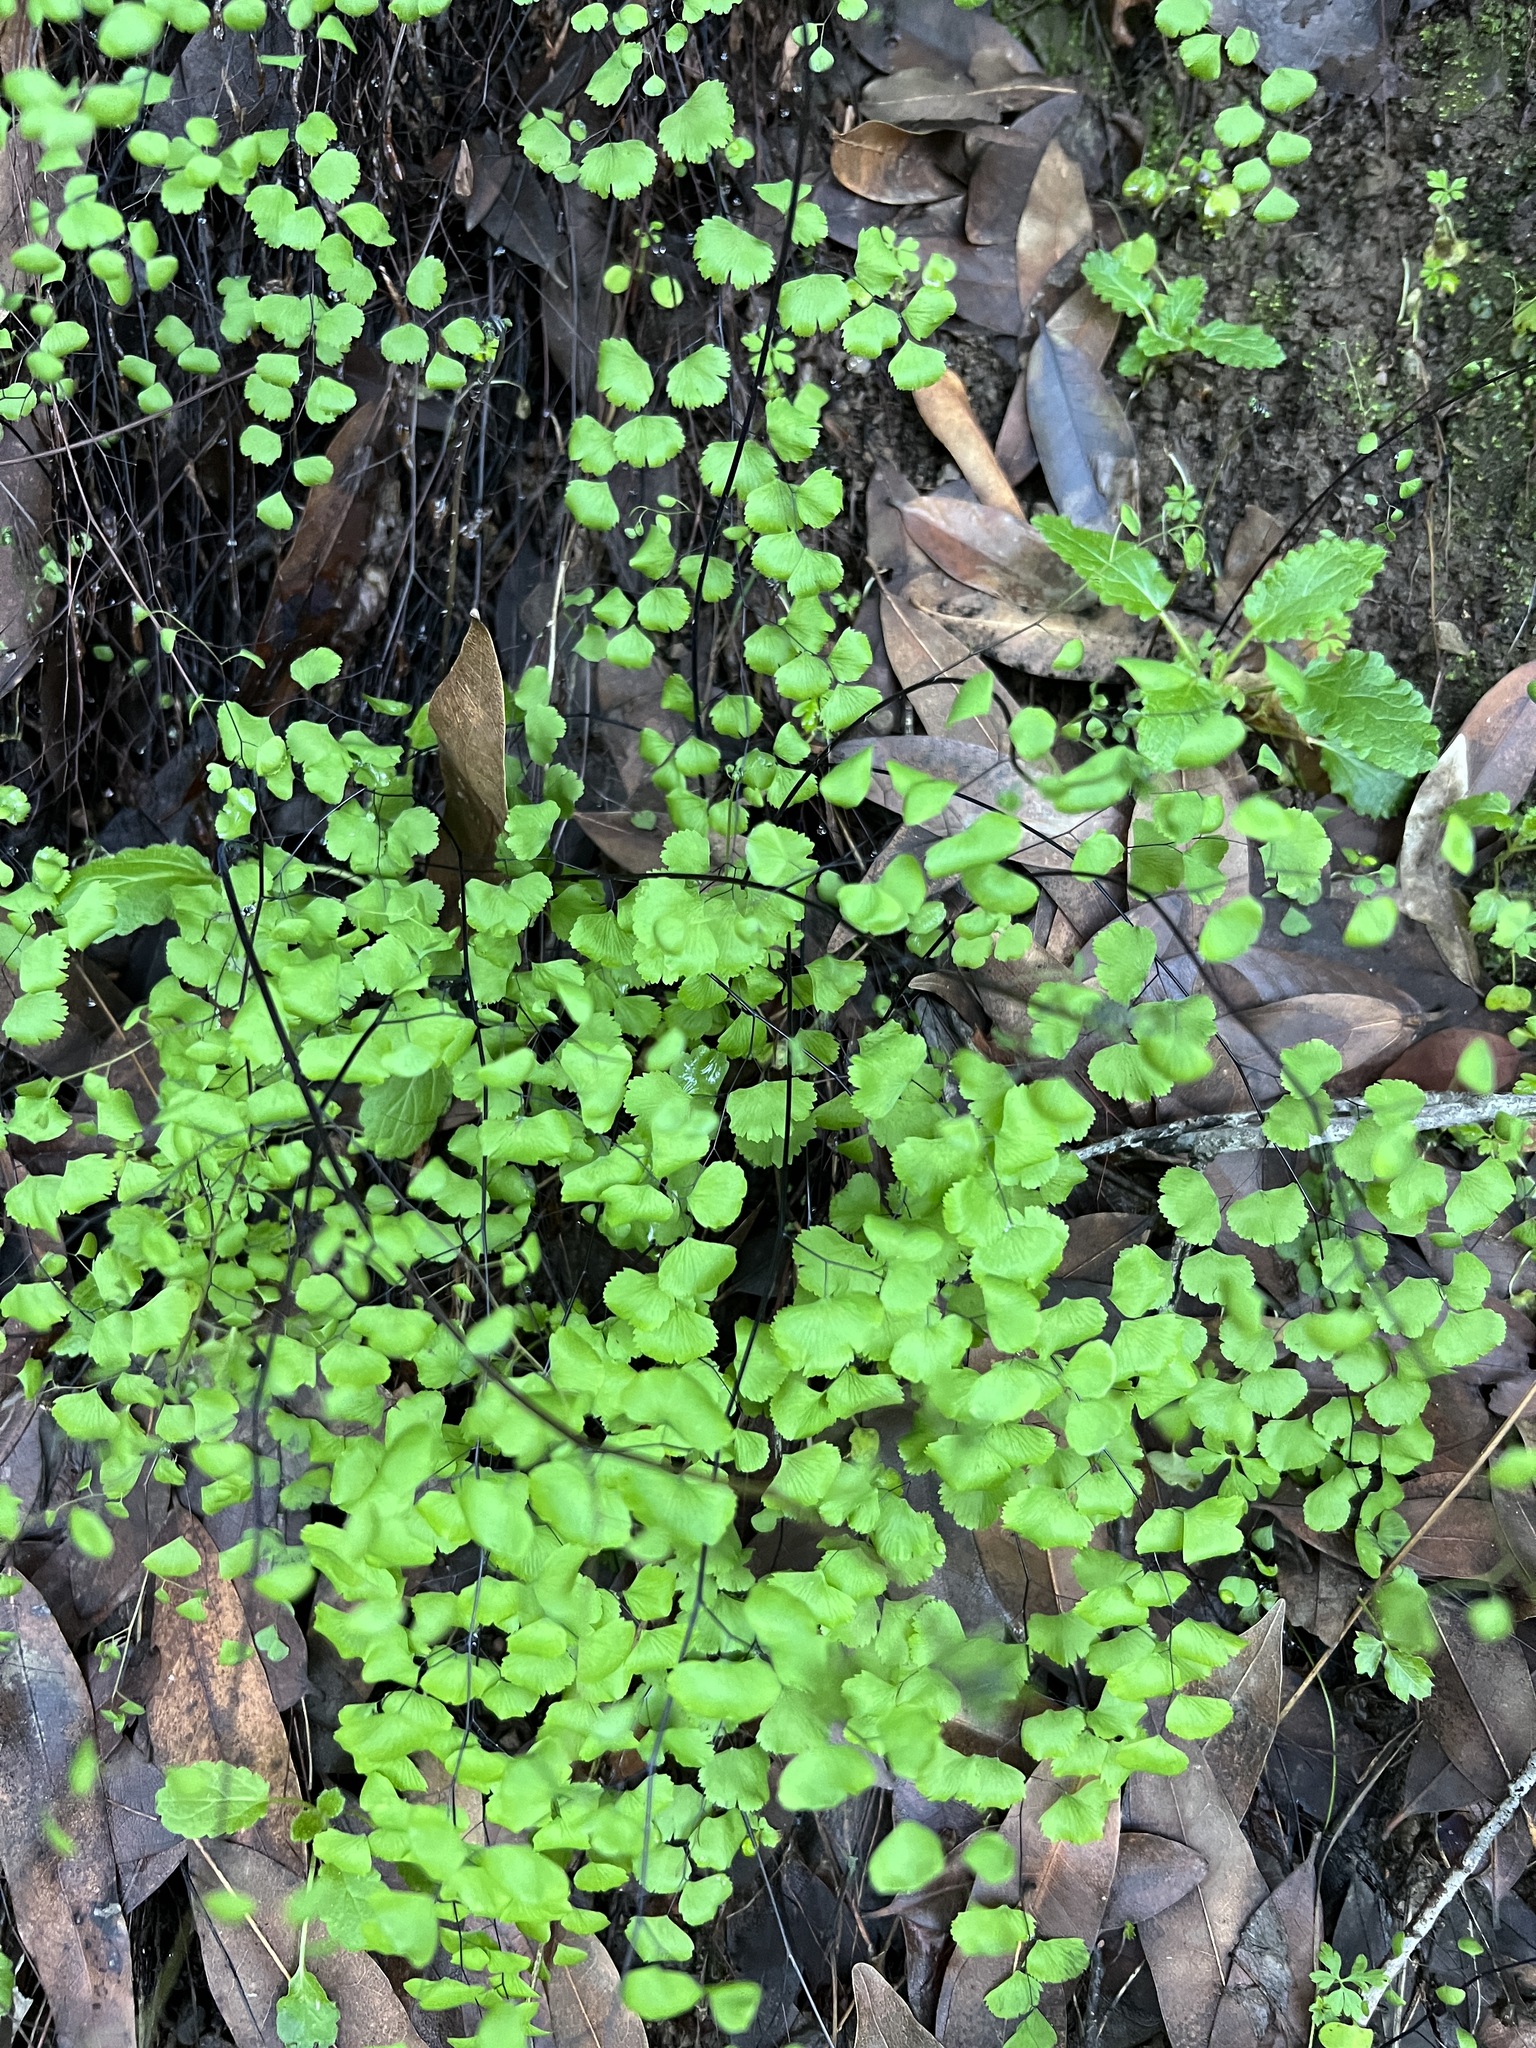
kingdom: Plantae
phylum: Tracheophyta
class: Polypodiopsida
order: Polypodiales
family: Pteridaceae
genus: Adiantum
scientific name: Adiantum jordanii
